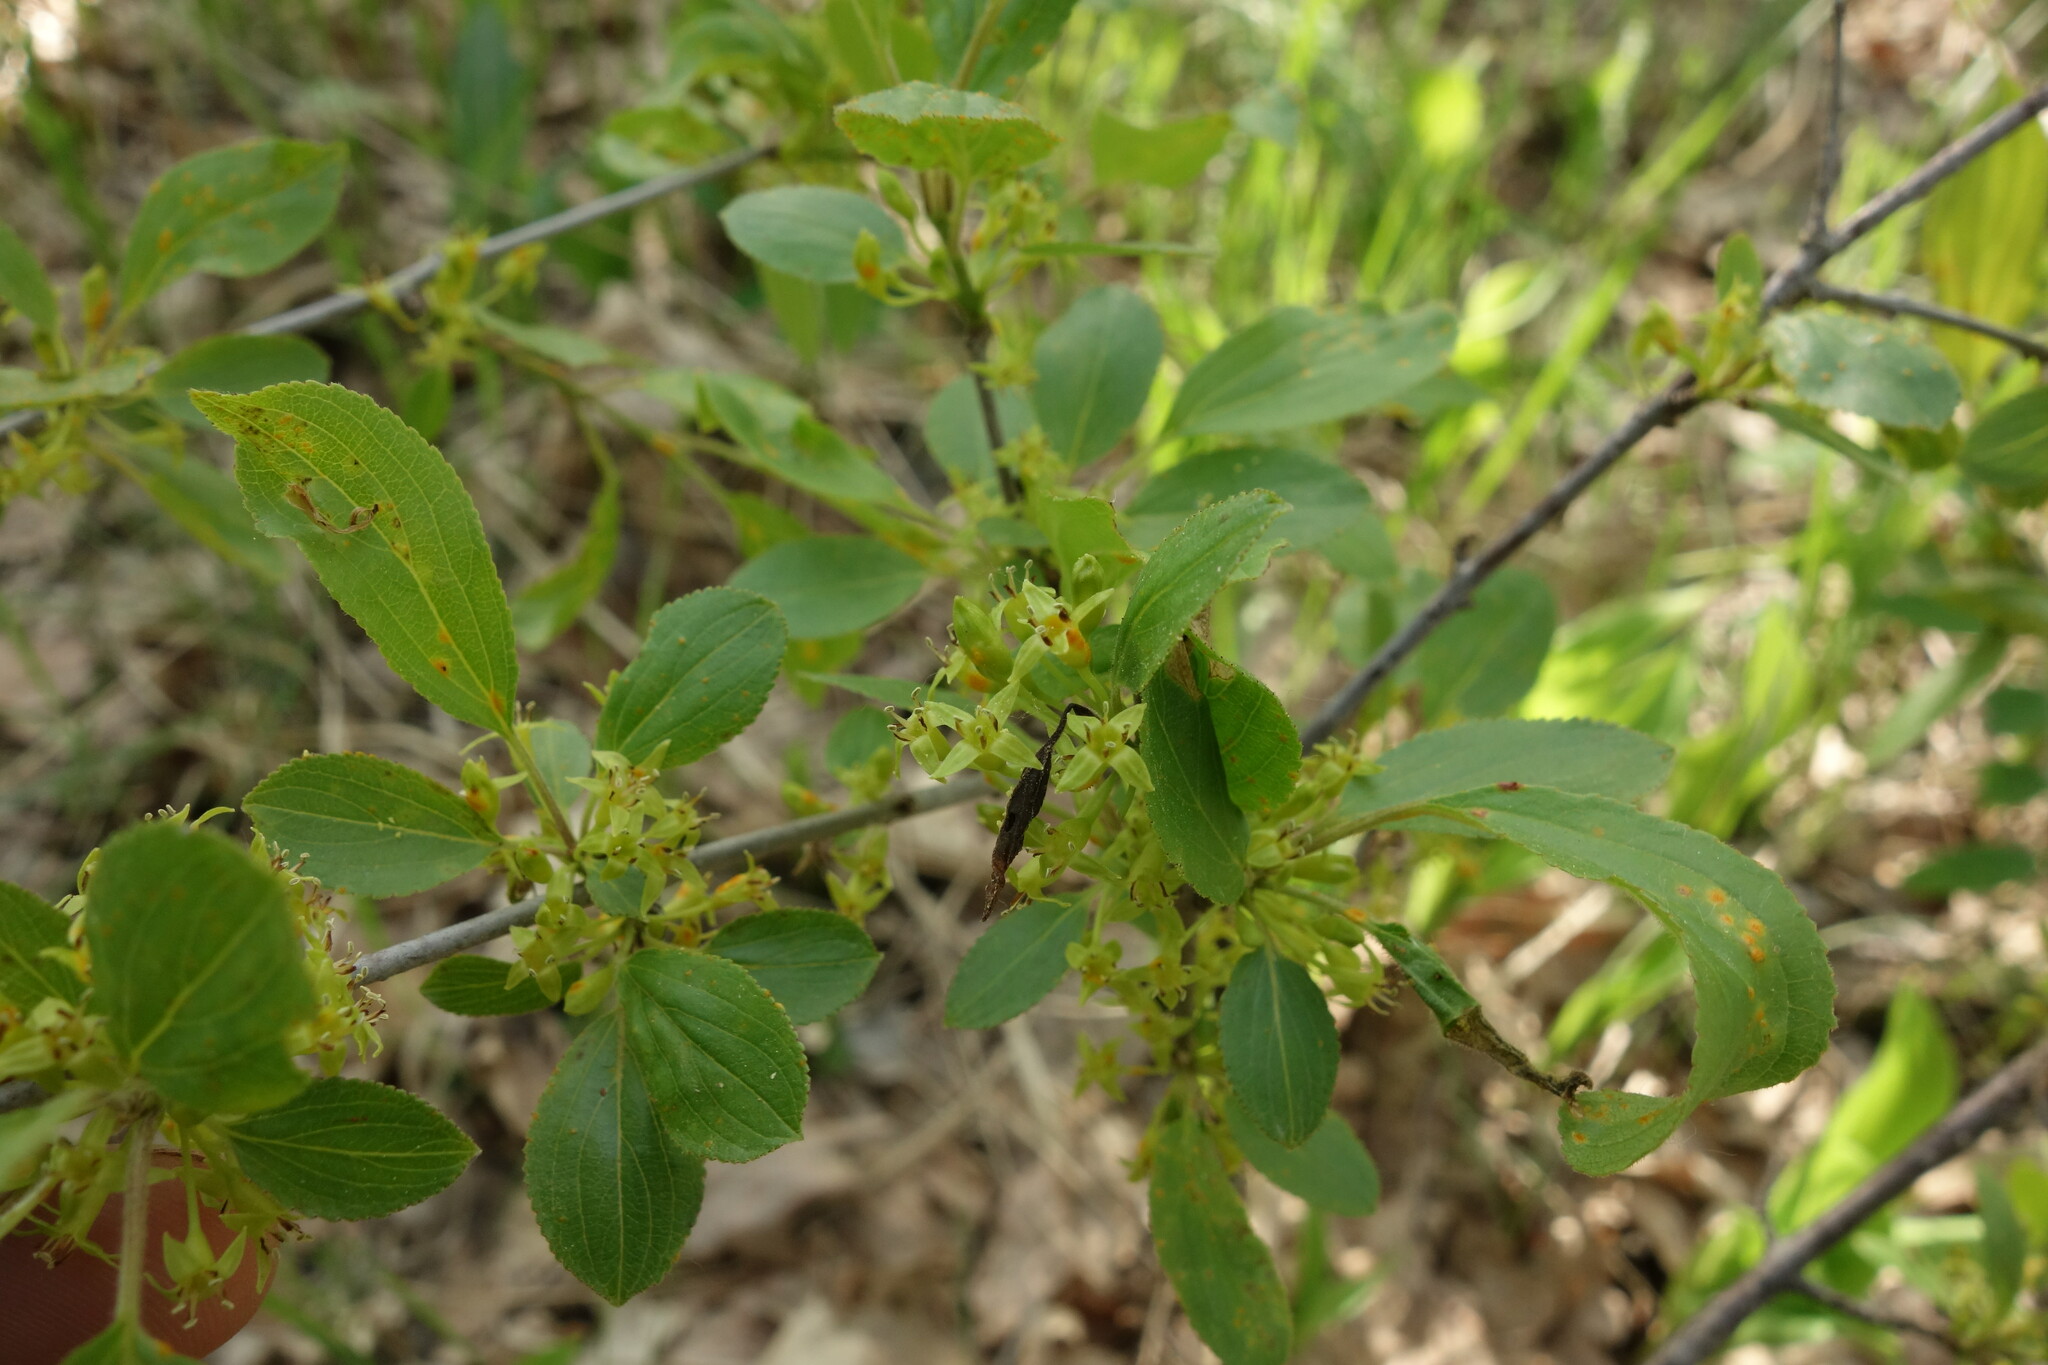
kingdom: Plantae
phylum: Tracheophyta
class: Magnoliopsida
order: Rosales
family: Rhamnaceae
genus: Rhamnus
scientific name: Rhamnus cathartica
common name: Common buckthorn
